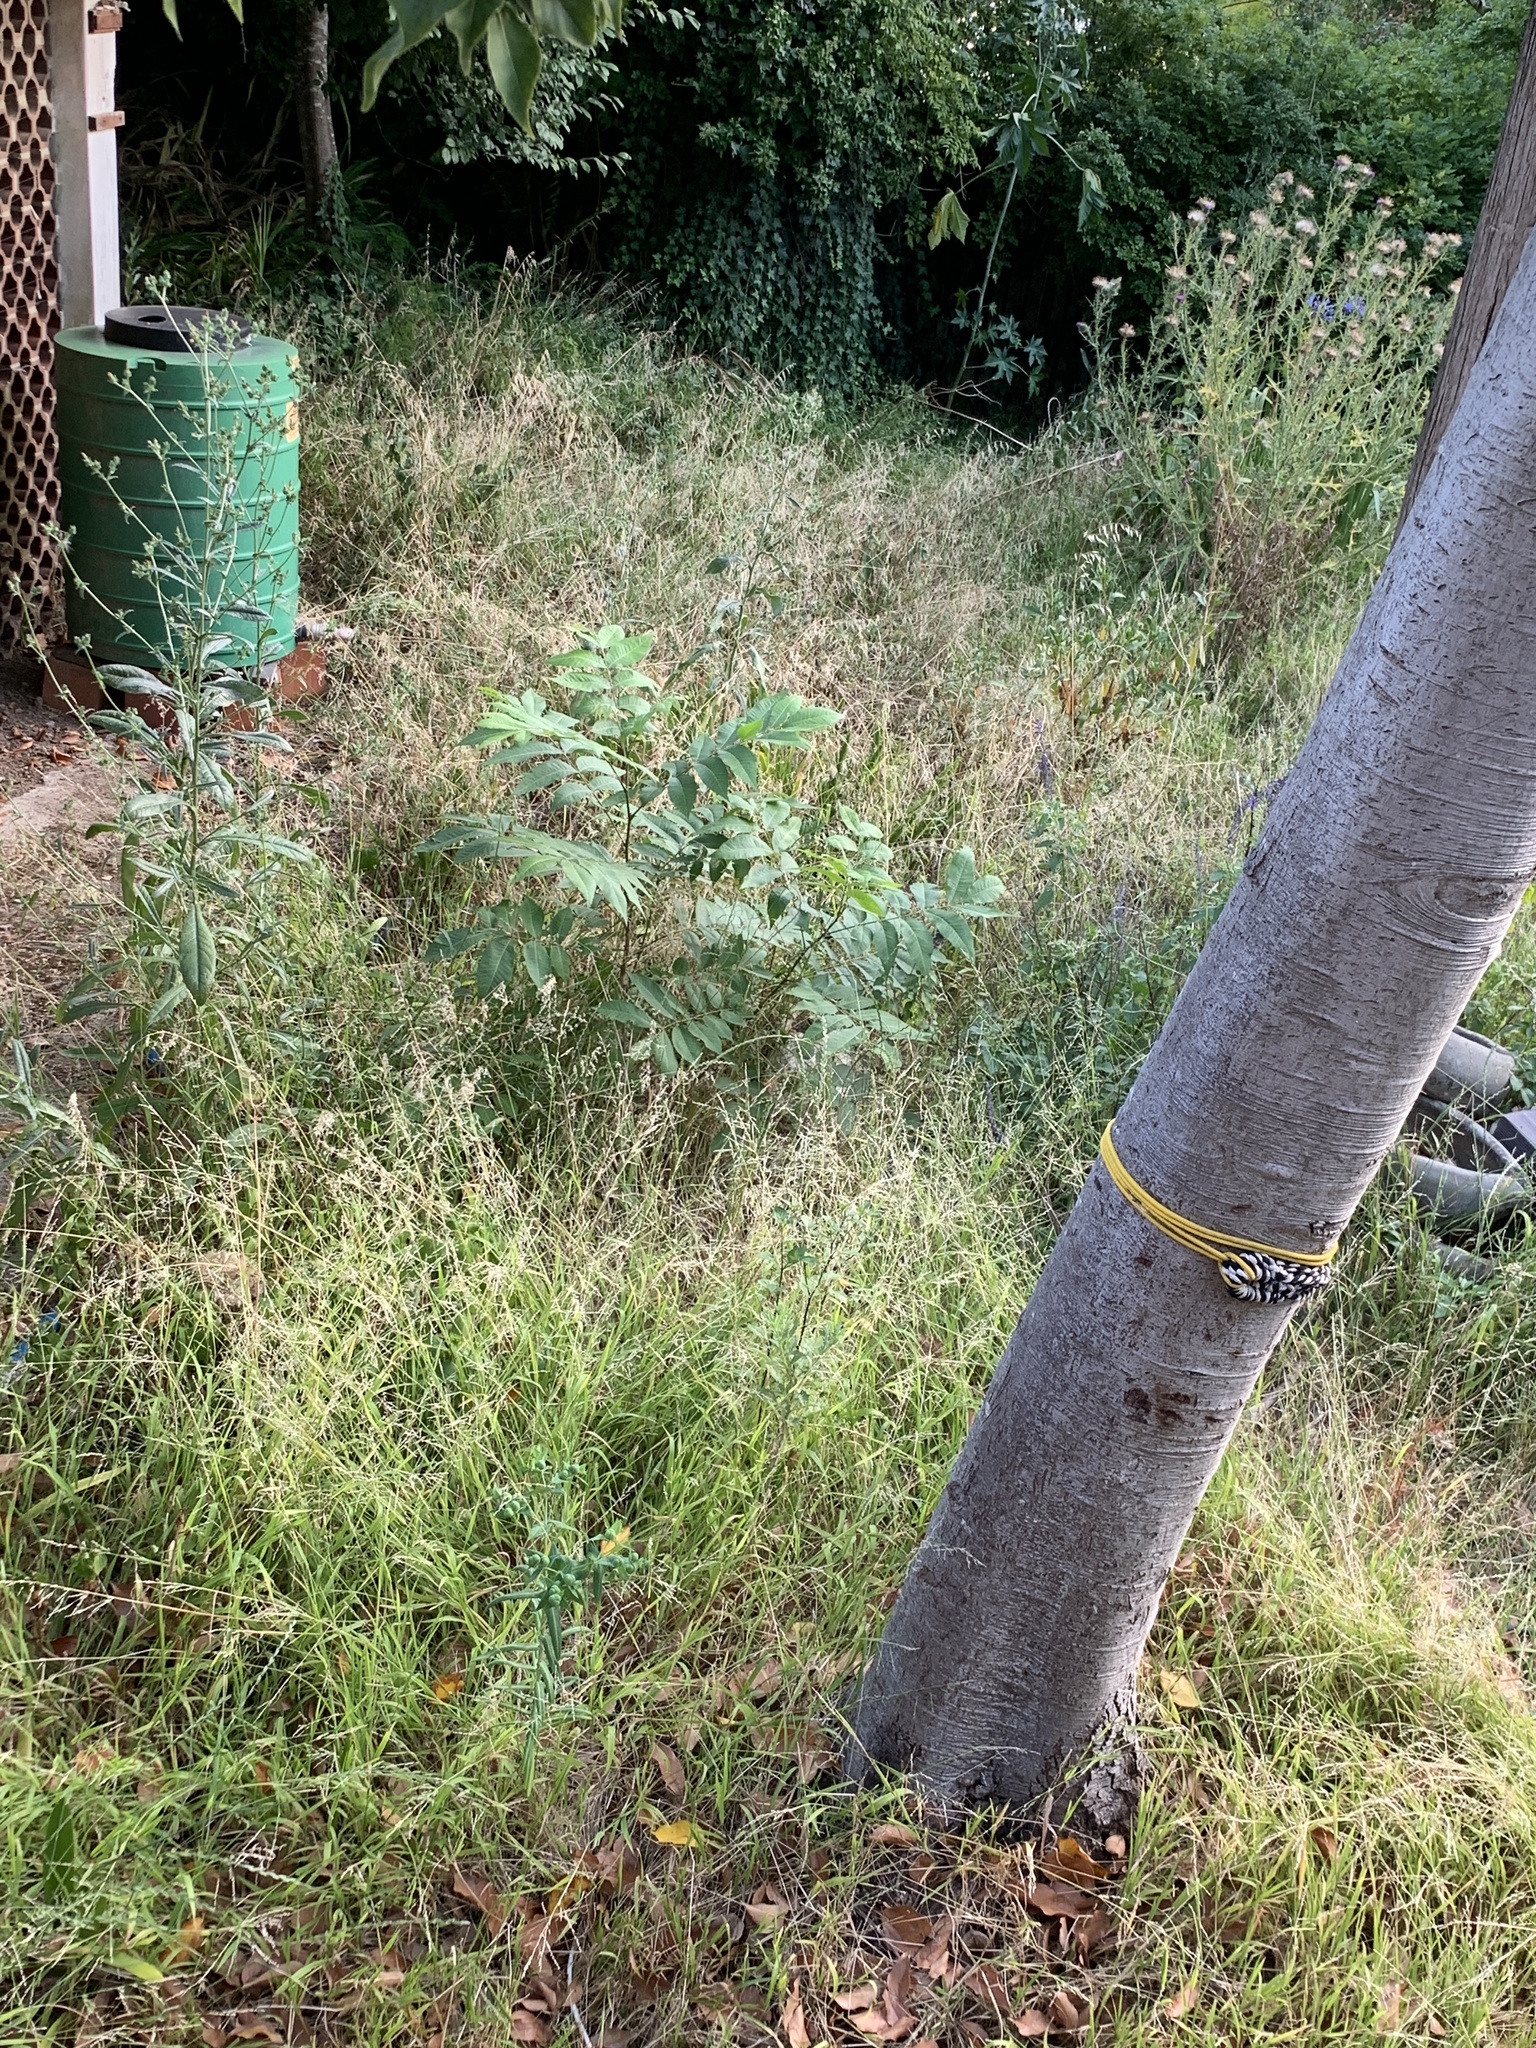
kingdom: Plantae
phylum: Tracheophyta
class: Magnoliopsida
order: Fagales
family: Juglandaceae
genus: Carya
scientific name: Carya illinoinensis
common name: Pecan
